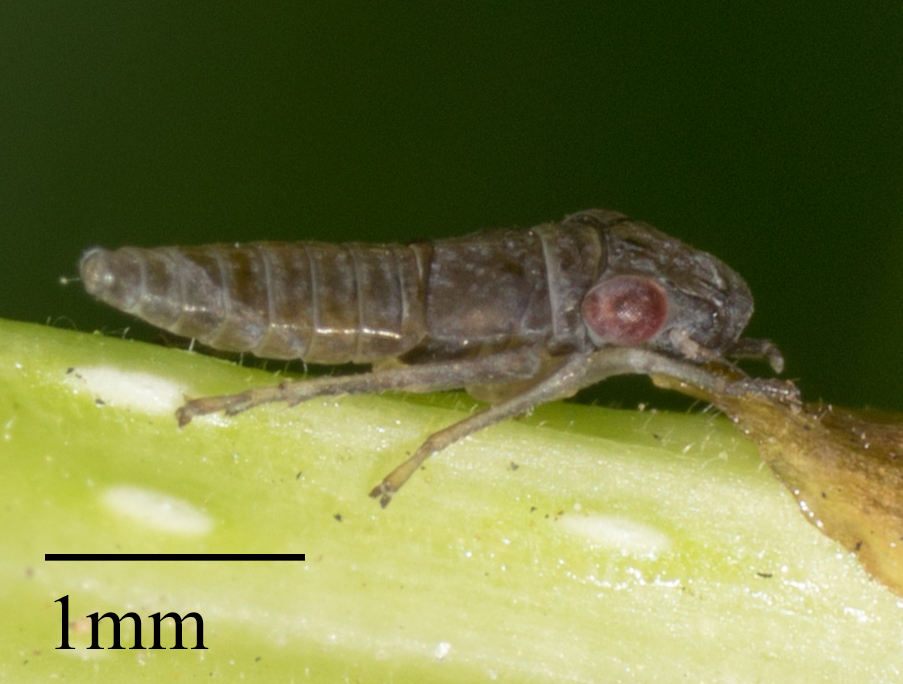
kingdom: Animalia
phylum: Arthropoda
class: Insecta
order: Hemiptera
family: Cicadellidae
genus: Homalodisca
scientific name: Homalodisca
